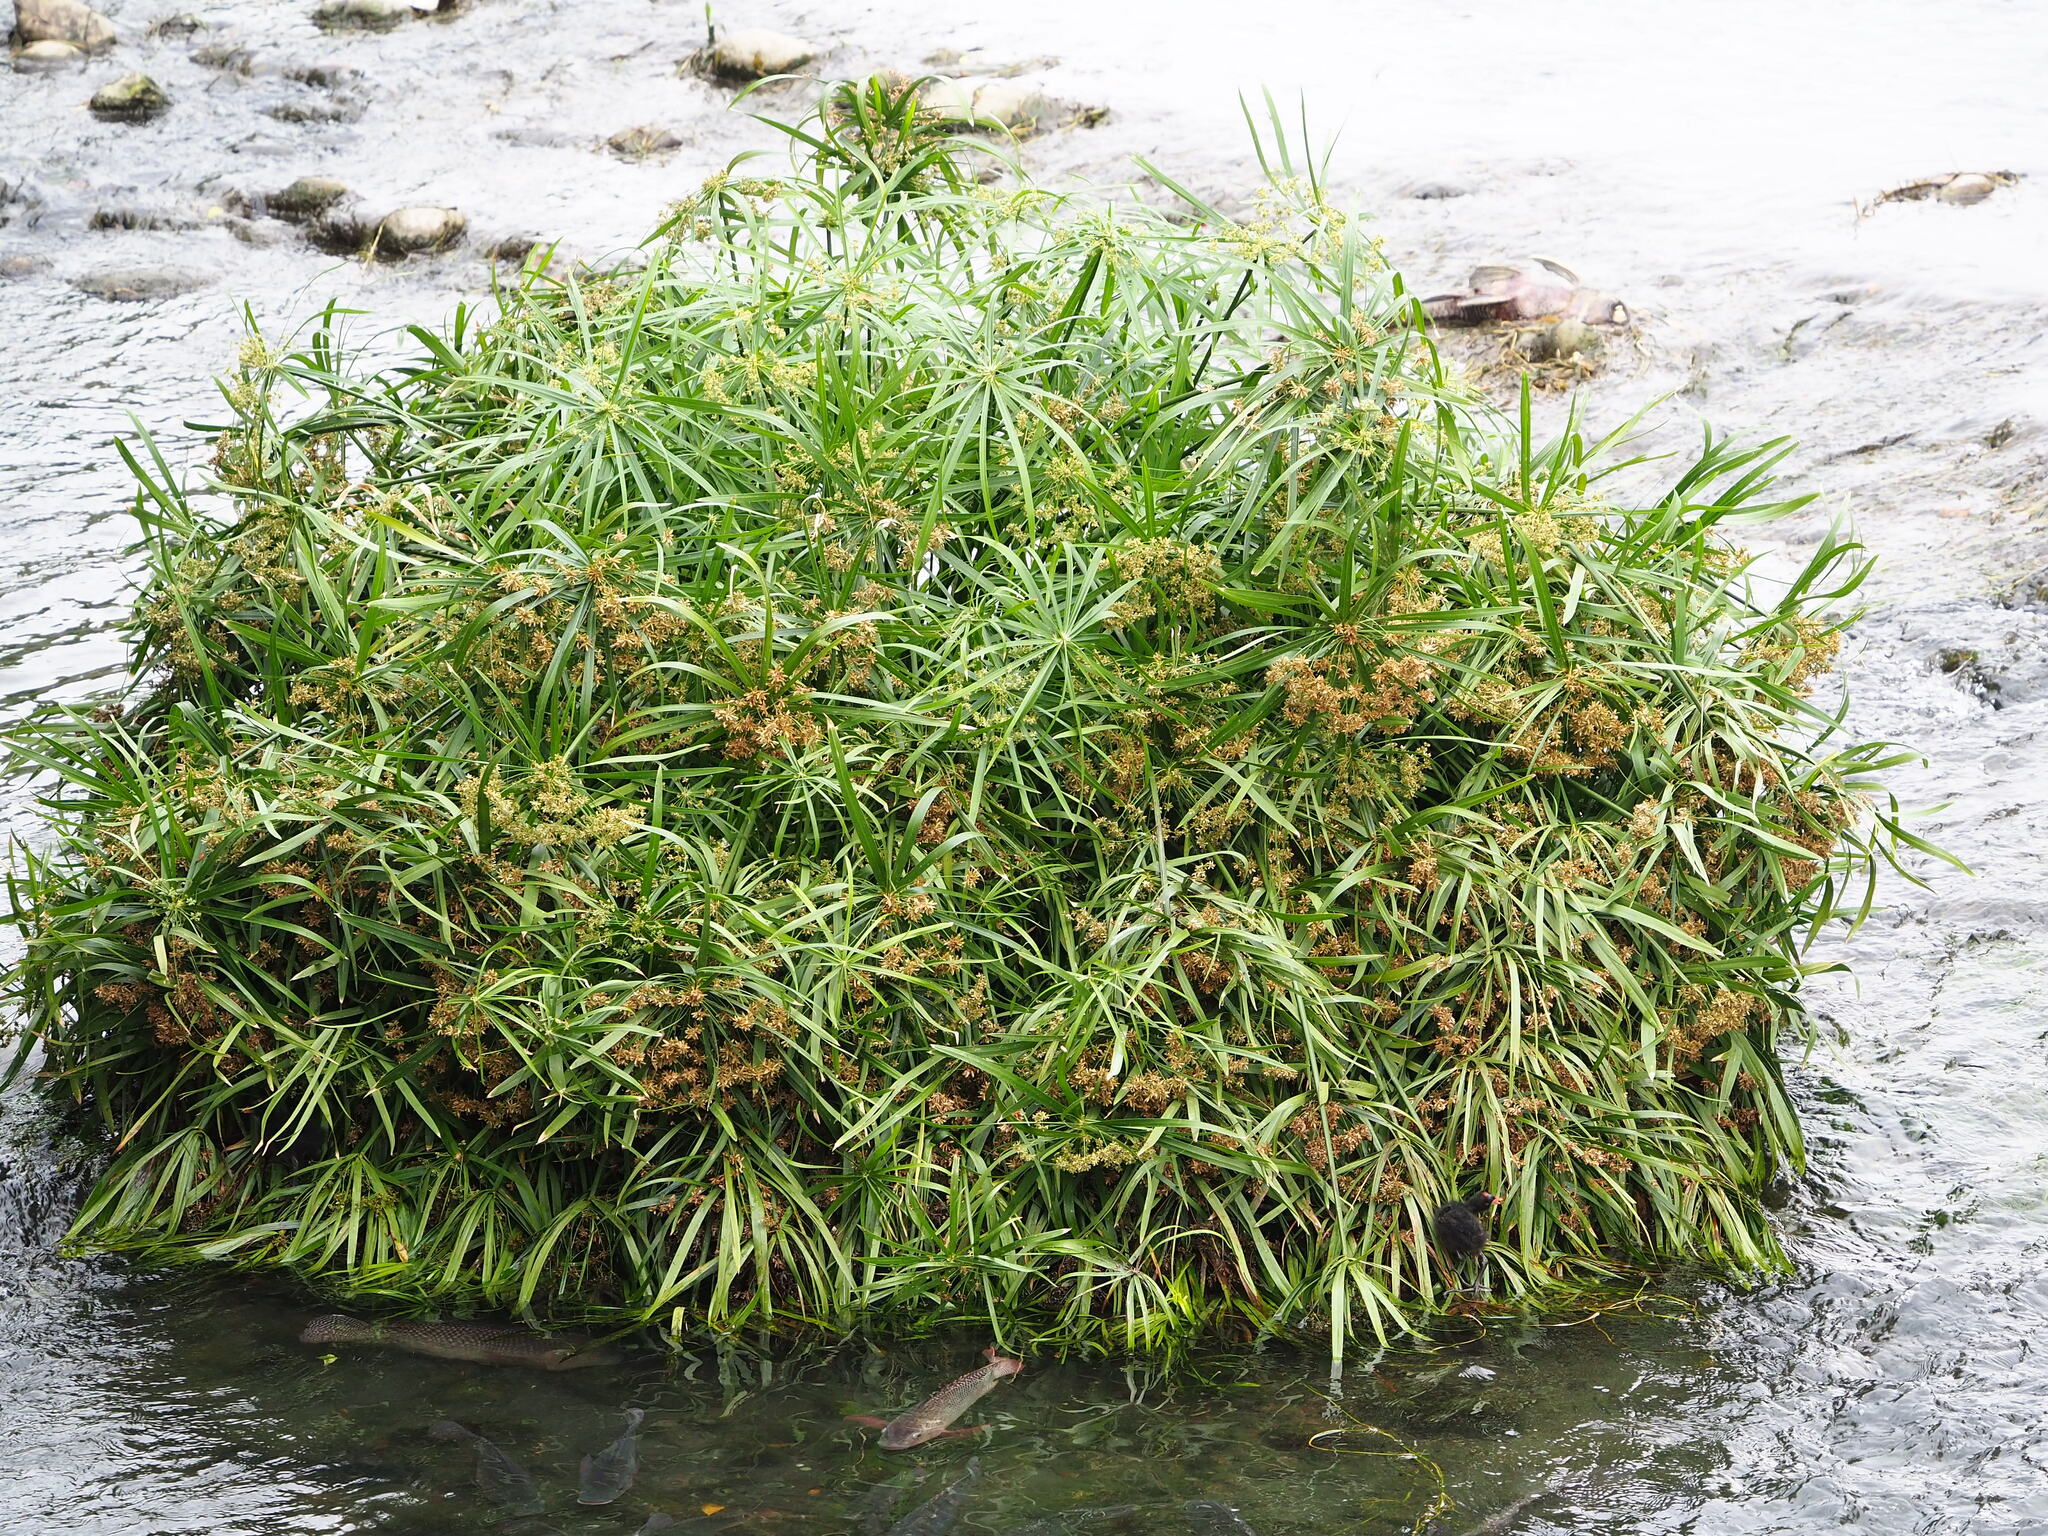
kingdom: Plantae
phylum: Tracheophyta
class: Liliopsida
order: Poales
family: Cyperaceae
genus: Cyperus
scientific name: Cyperus alternifolius
